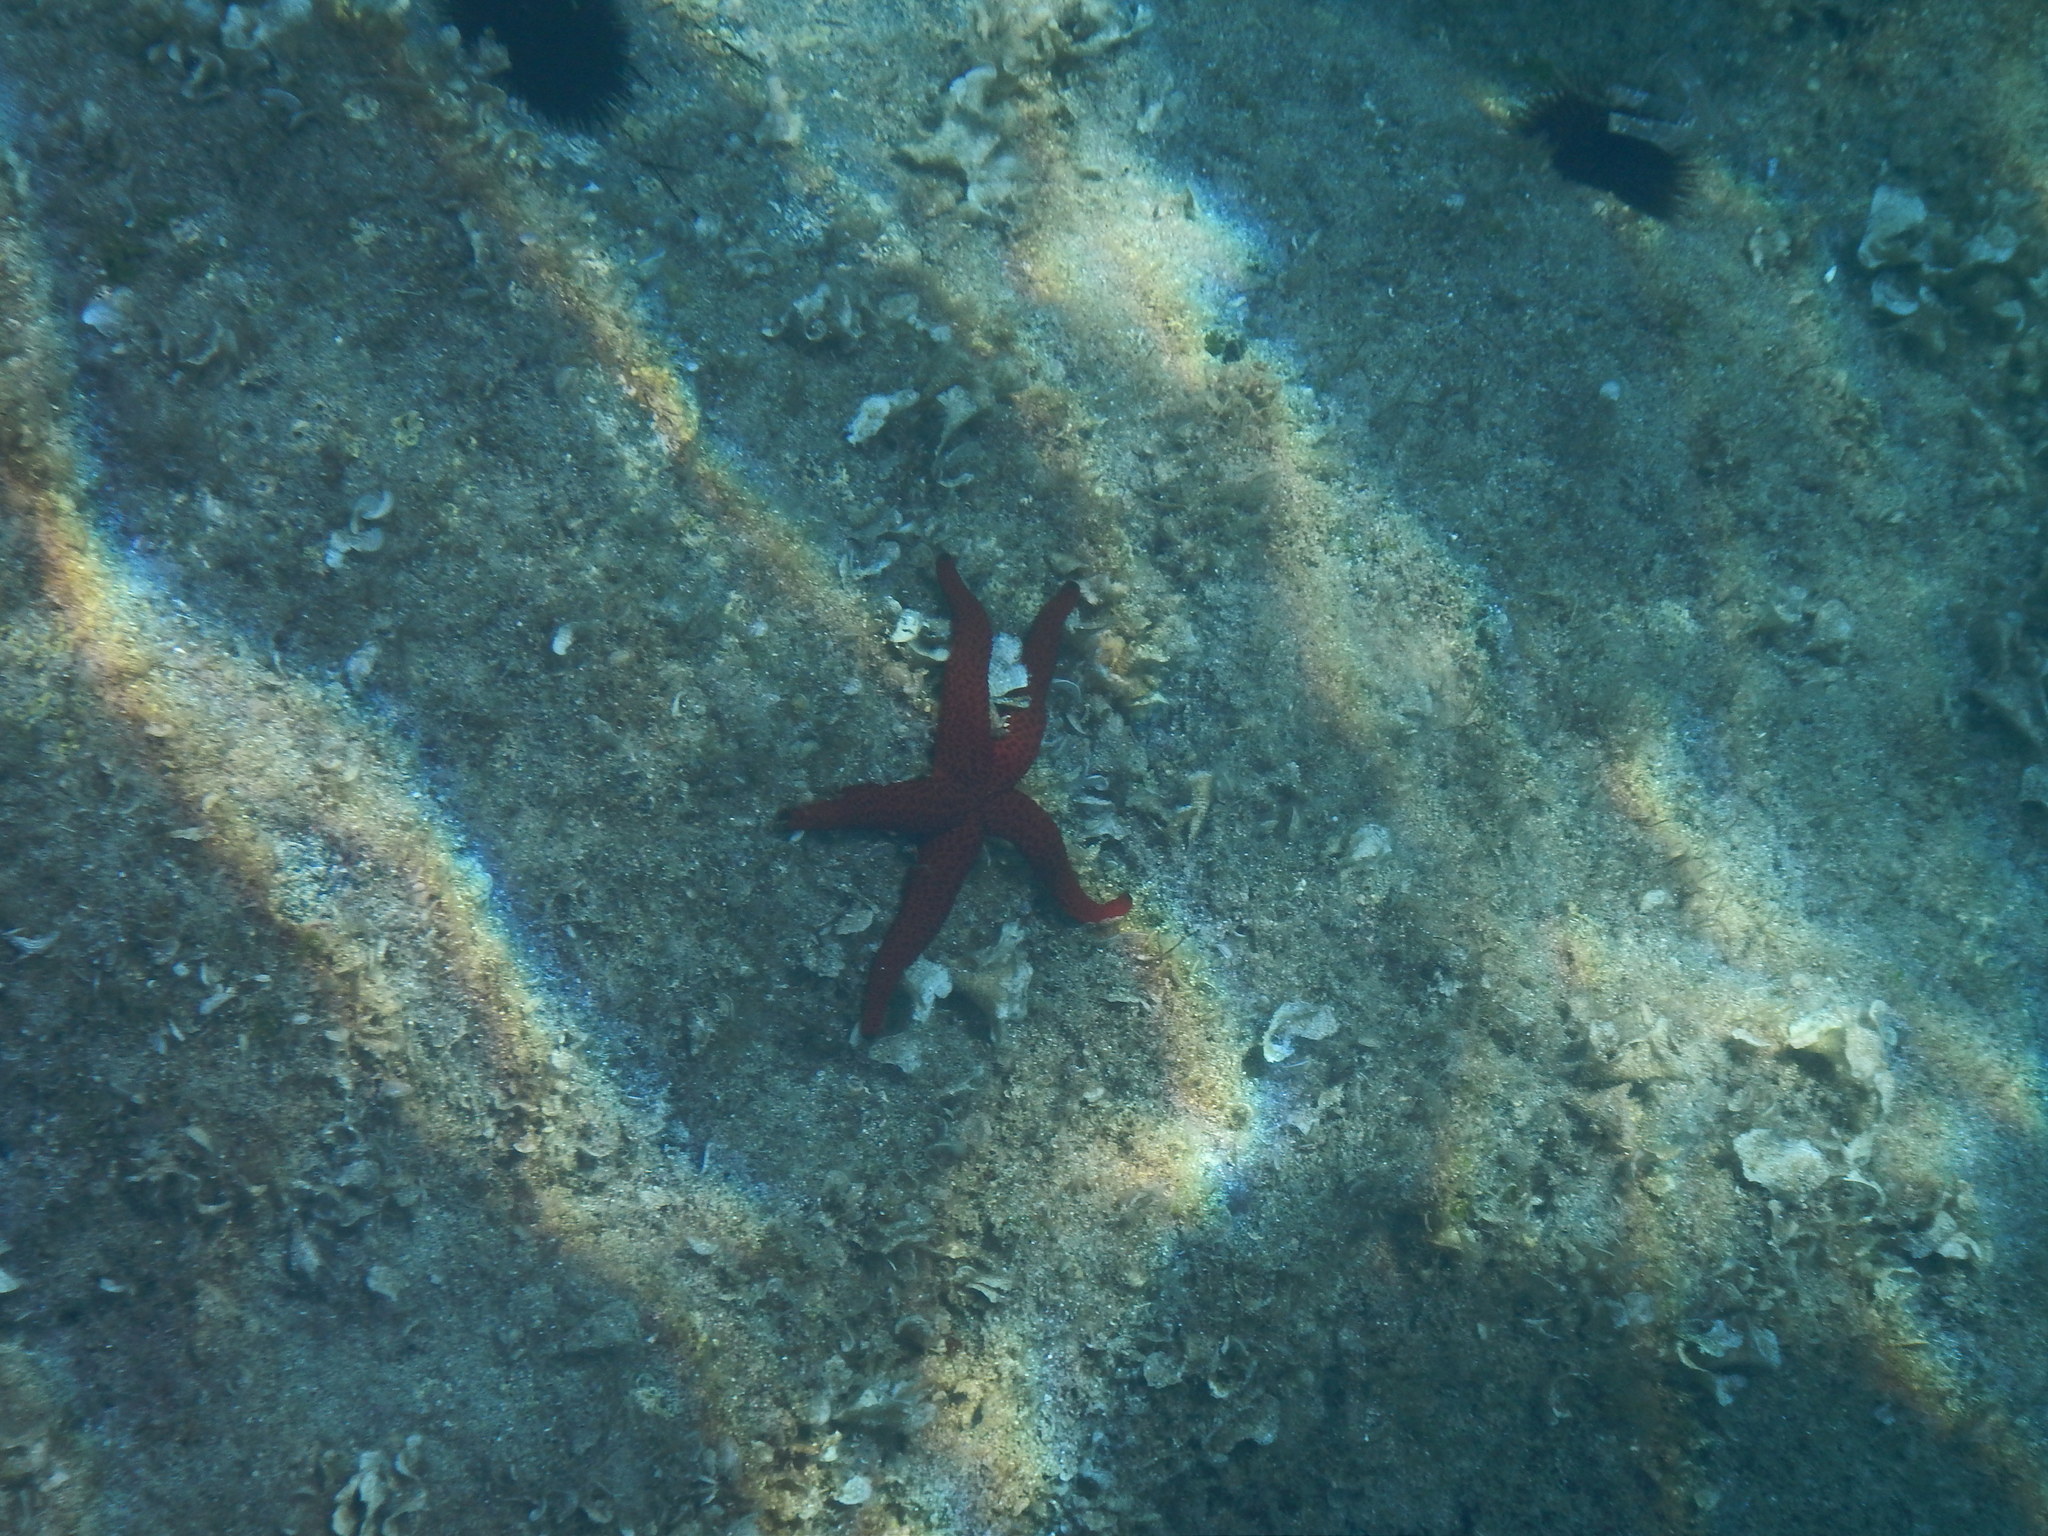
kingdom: Animalia
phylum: Echinodermata
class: Asteroidea
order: Spinulosida
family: Echinasteridae
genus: Echinaster
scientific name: Echinaster sepositus
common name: Red starfish
